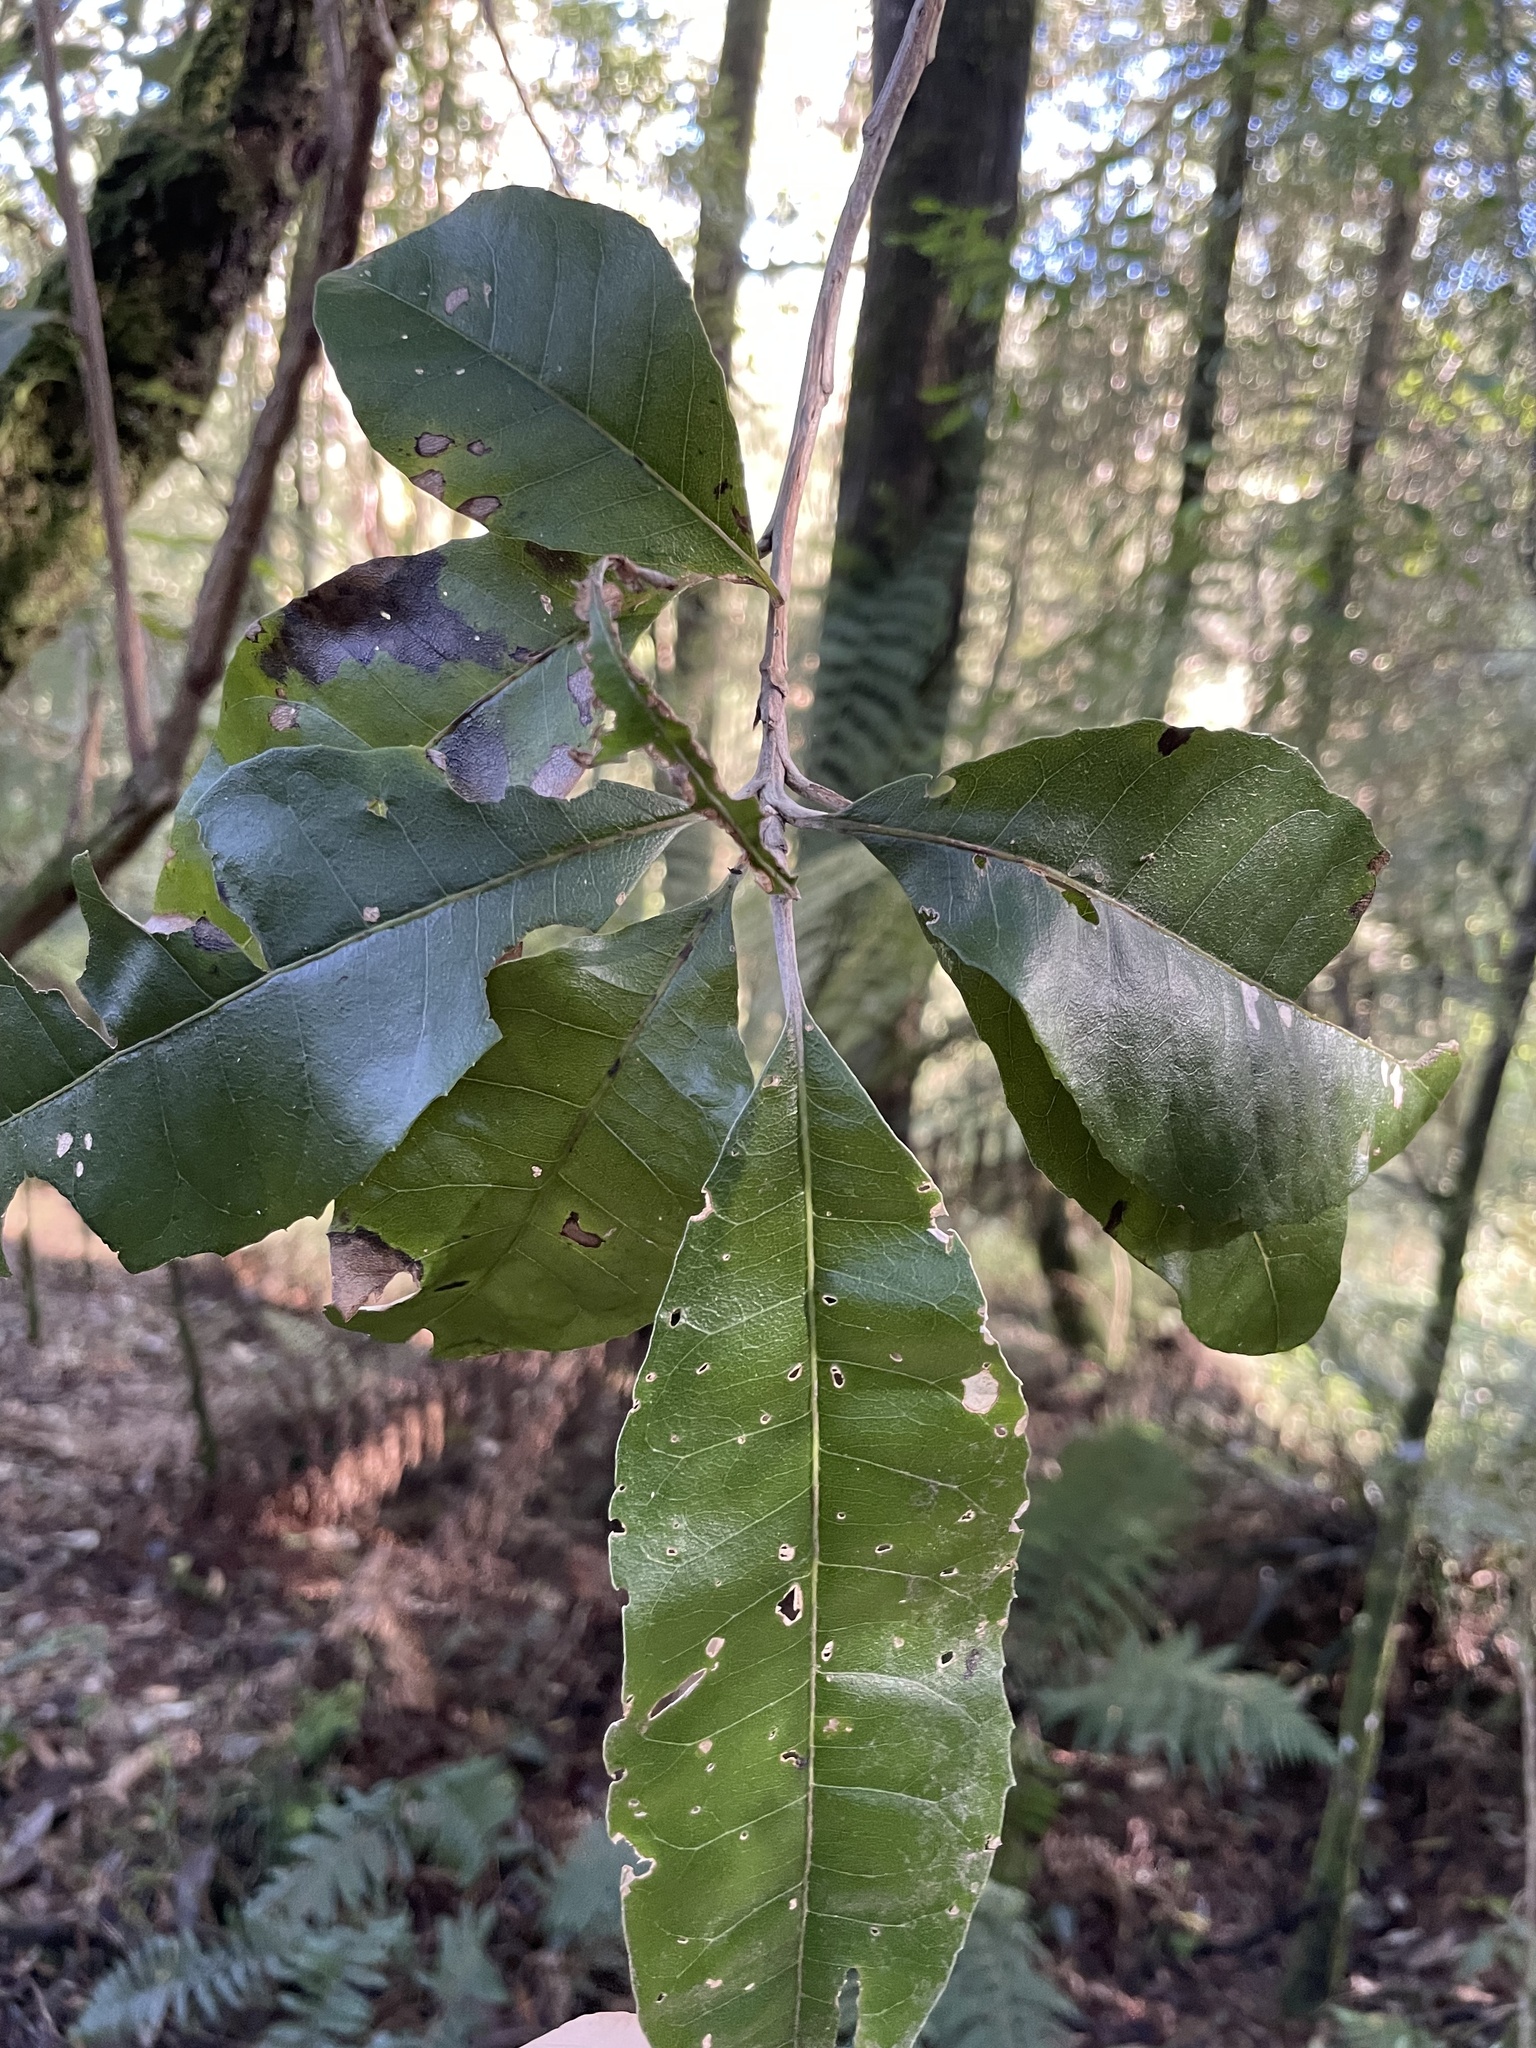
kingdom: Plantae
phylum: Tracheophyta
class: Magnoliopsida
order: Asterales
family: Asteraceae
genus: Olearia
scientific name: Olearia argophylla
